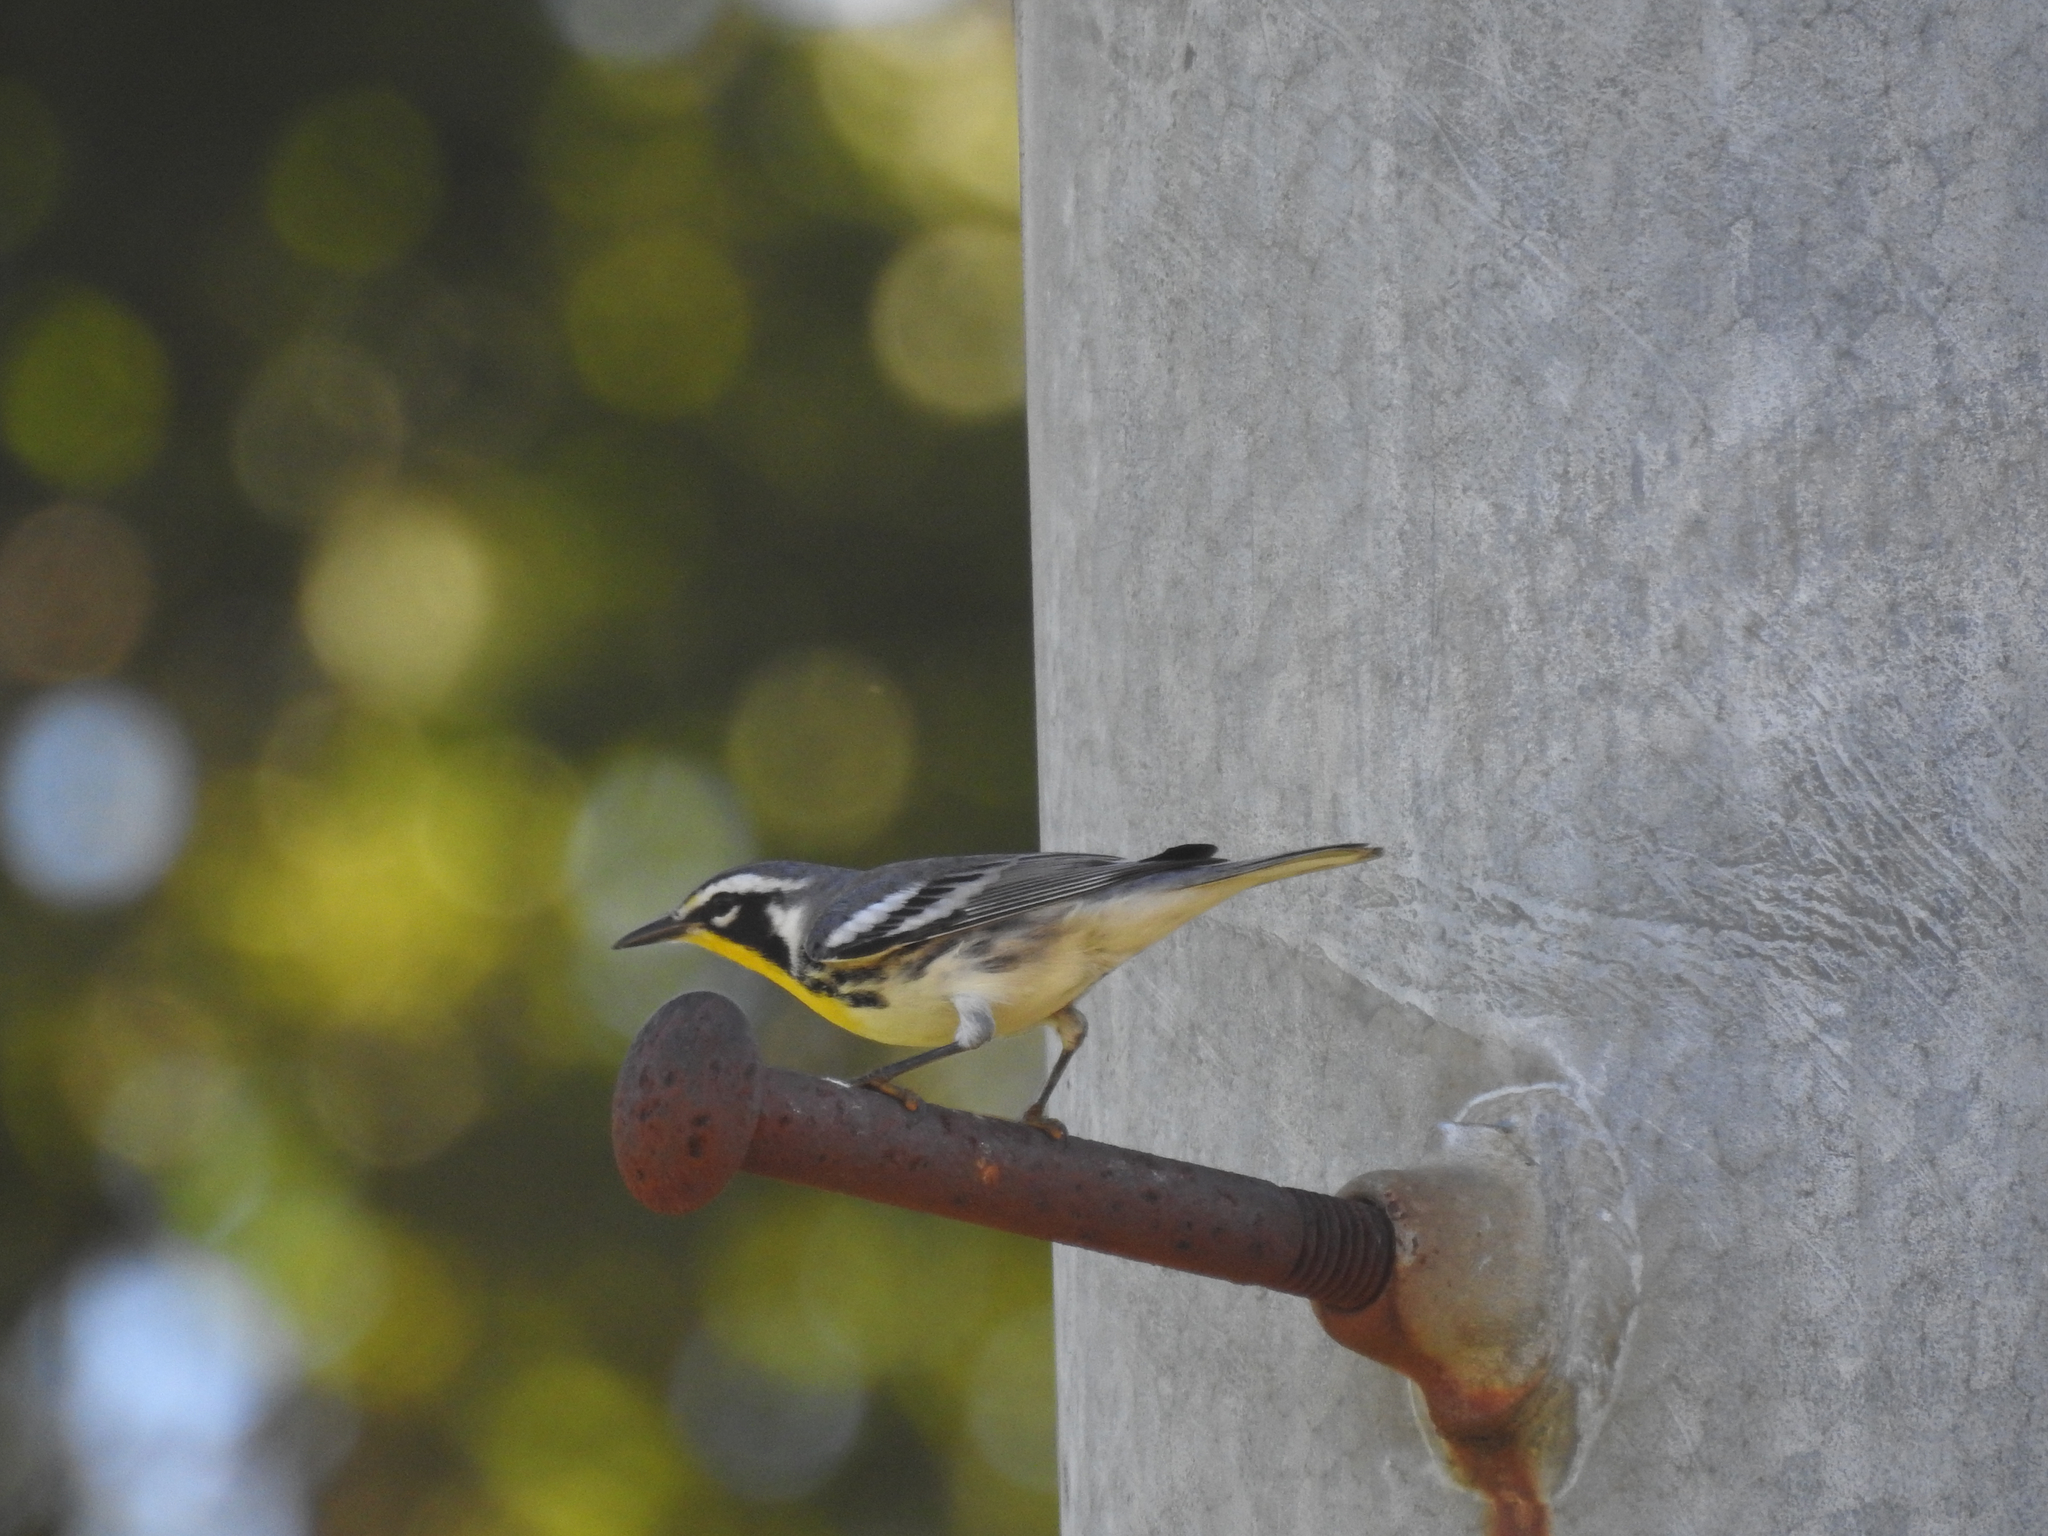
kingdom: Animalia
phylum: Chordata
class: Aves
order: Passeriformes
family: Parulidae
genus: Setophaga
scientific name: Setophaga dominica
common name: Yellow-throated warbler
